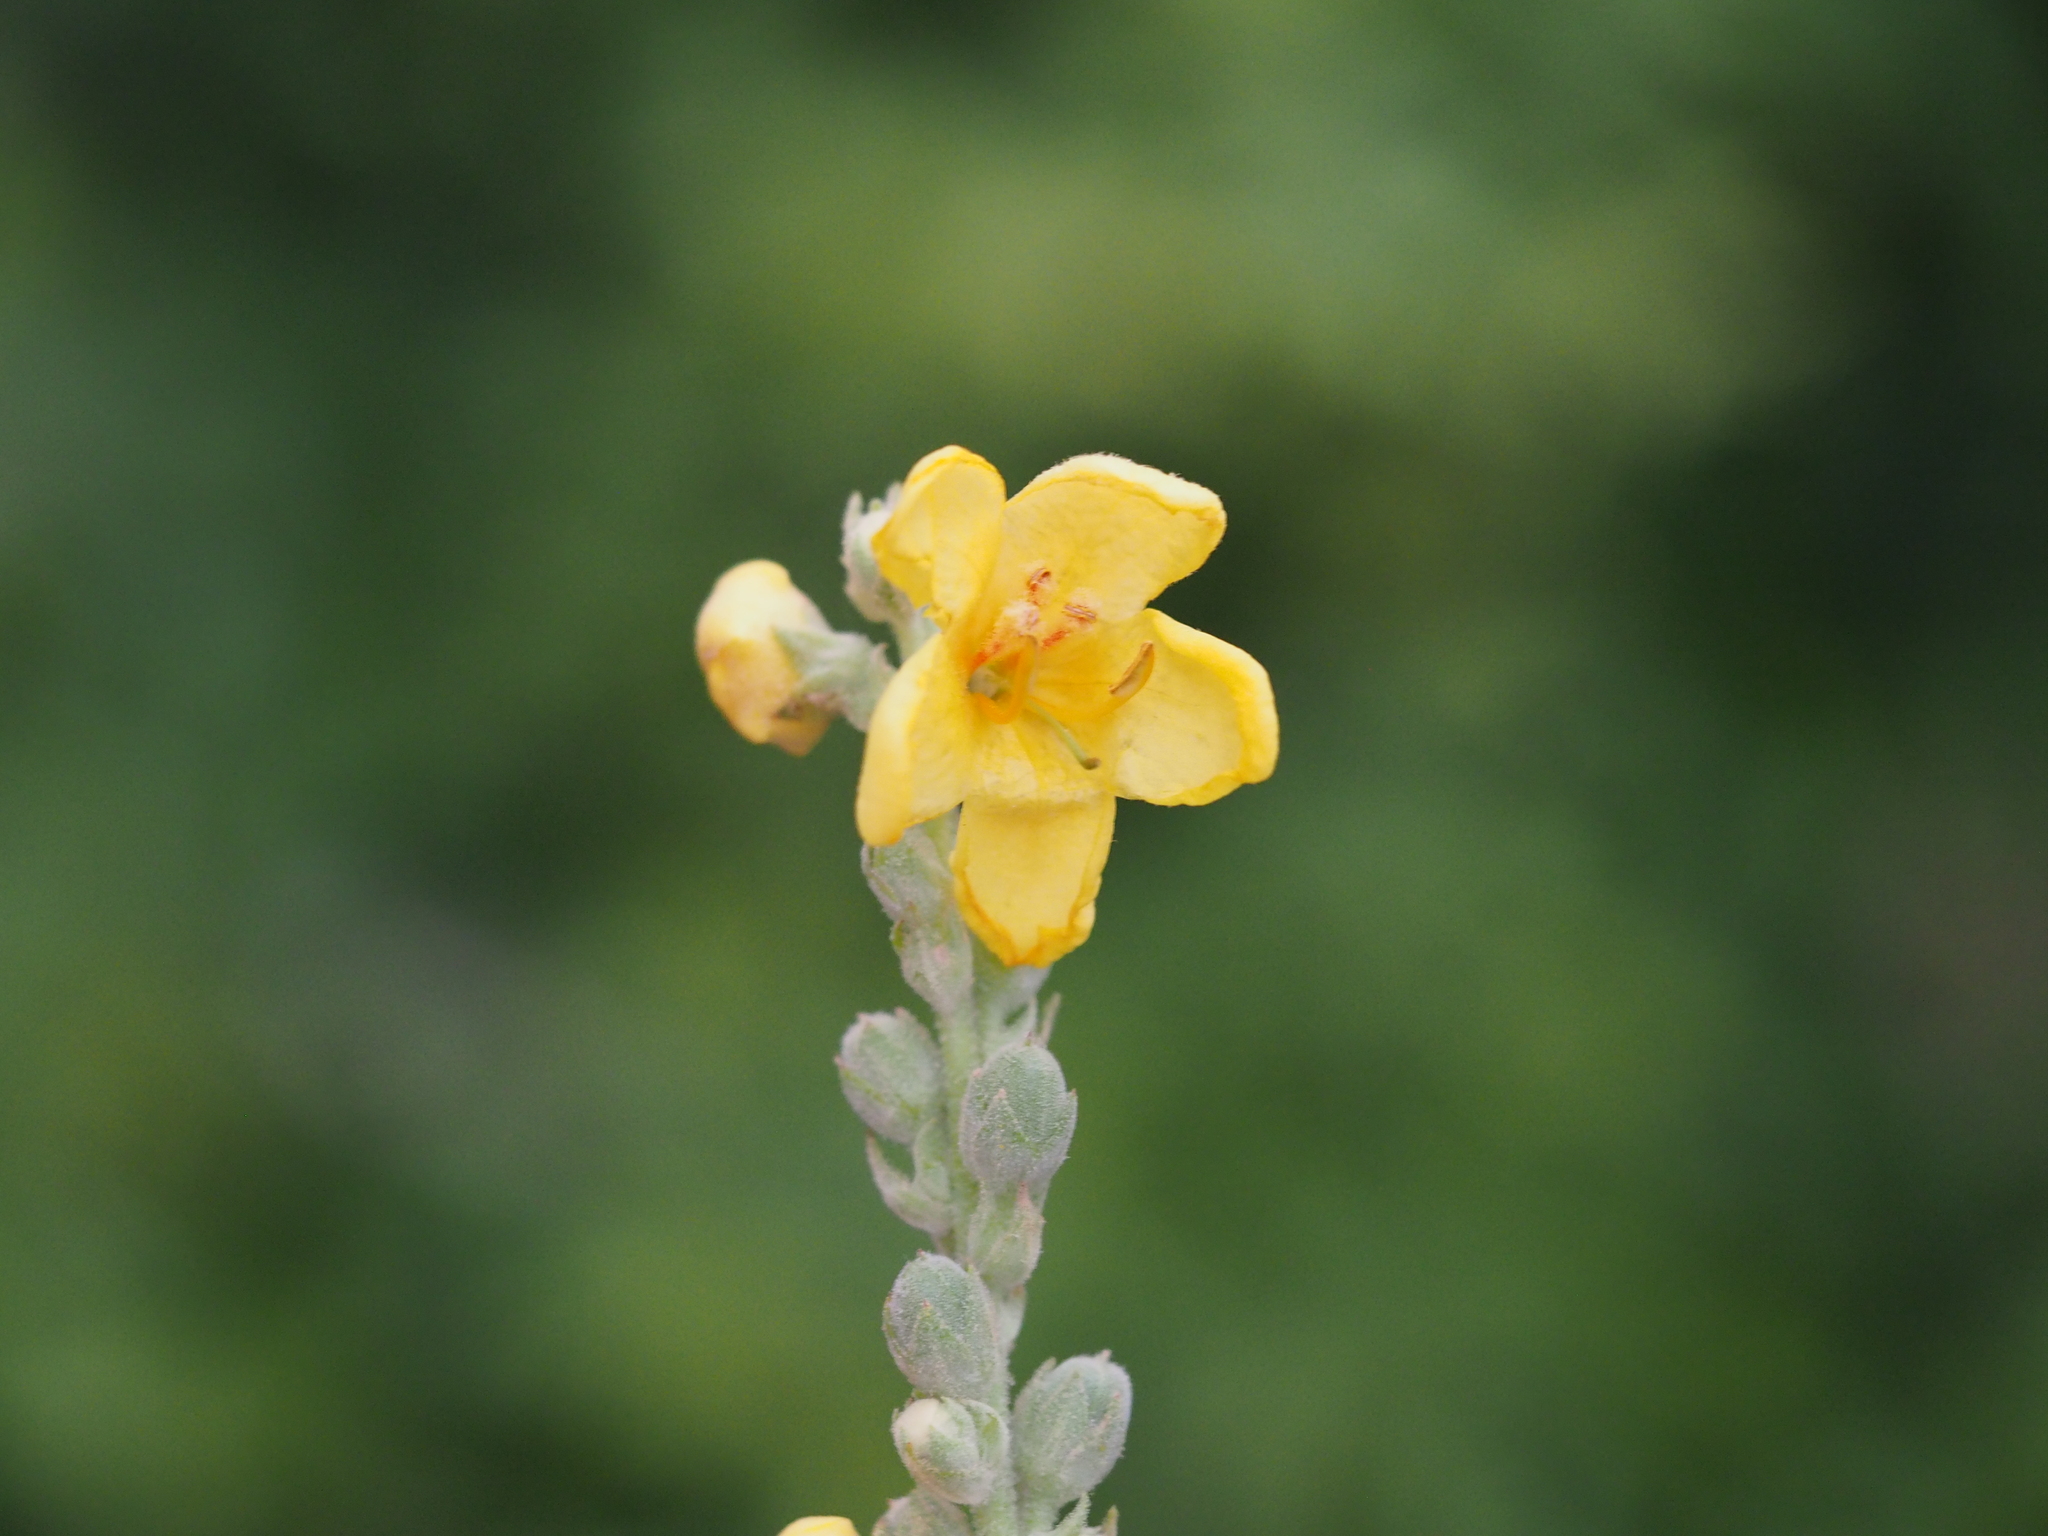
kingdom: Plantae
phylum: Tracheophyta
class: Magnoliopsida
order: Lamiales
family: Scrophulariaceae
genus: Verbascum
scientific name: Verbascum phlomoides
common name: Orange mullein
